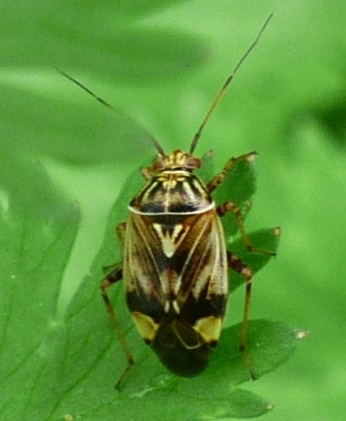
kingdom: Animalia
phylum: Arthropoda
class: Insecta
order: Hemiptera
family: Miridae
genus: Lygus
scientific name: Lygus lineolaris
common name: North american tarnished plant bug
